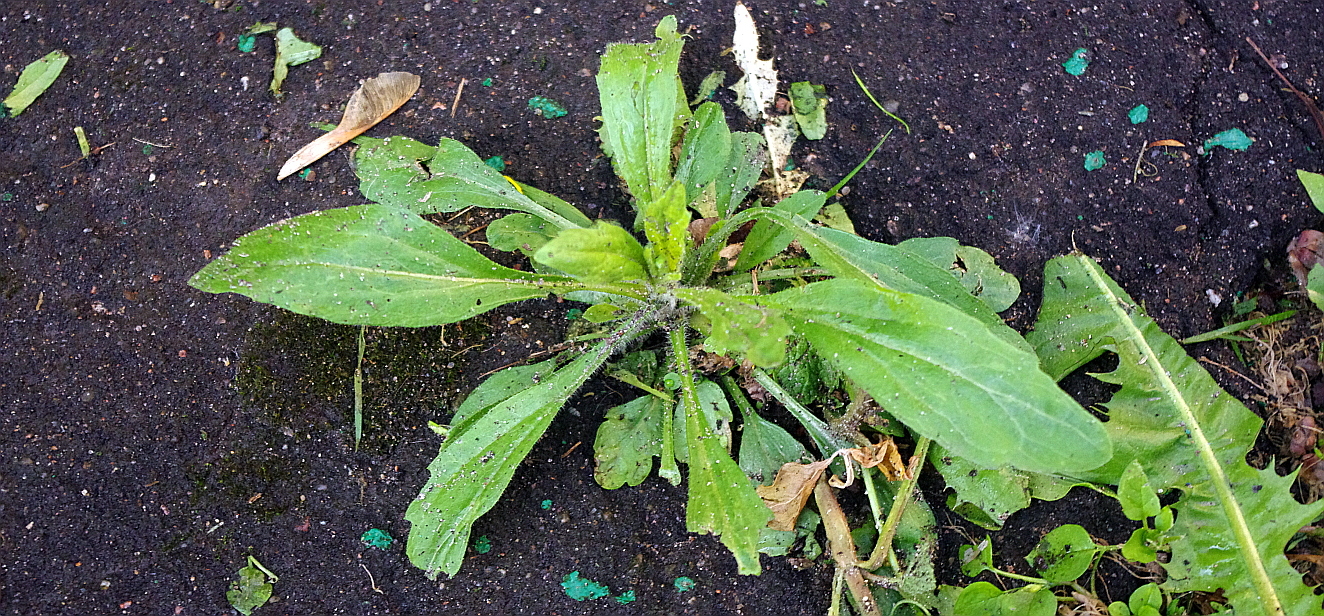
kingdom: Plantae
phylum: Tracheophyta
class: Magnoliopsida
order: Asterales
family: Asteraceae
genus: Erigeron
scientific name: Erigeron canadensis
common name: Canadian fleabane
